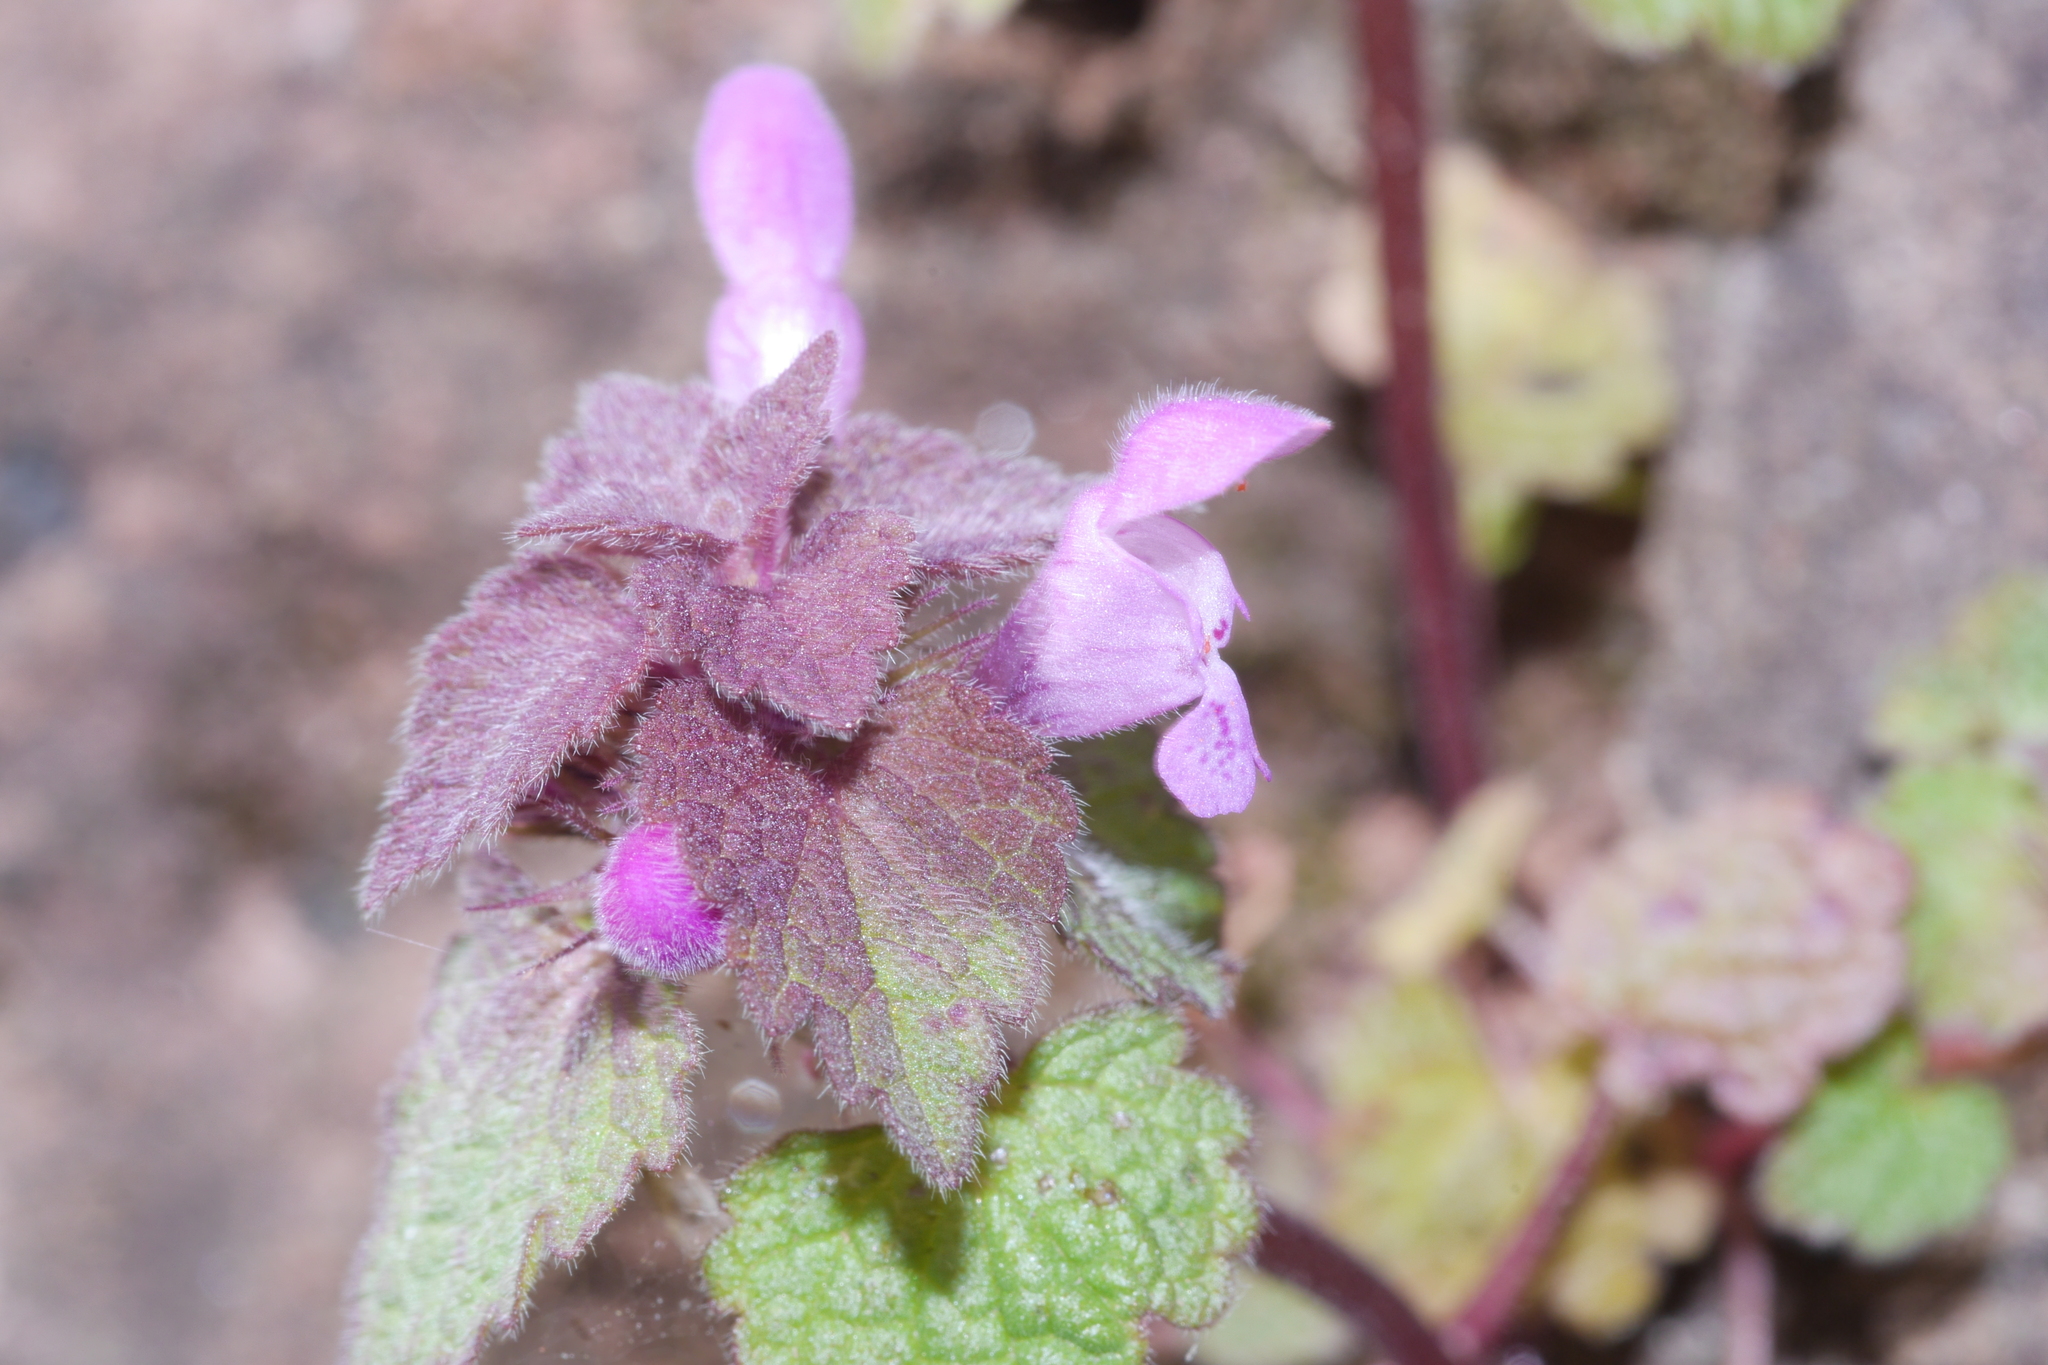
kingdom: Plantae
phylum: Tracheophyta
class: Magnoliopsida
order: Lamiales
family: Lamiaceae
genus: Lamium
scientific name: Lamium purpureum
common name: Red dead-nettle
